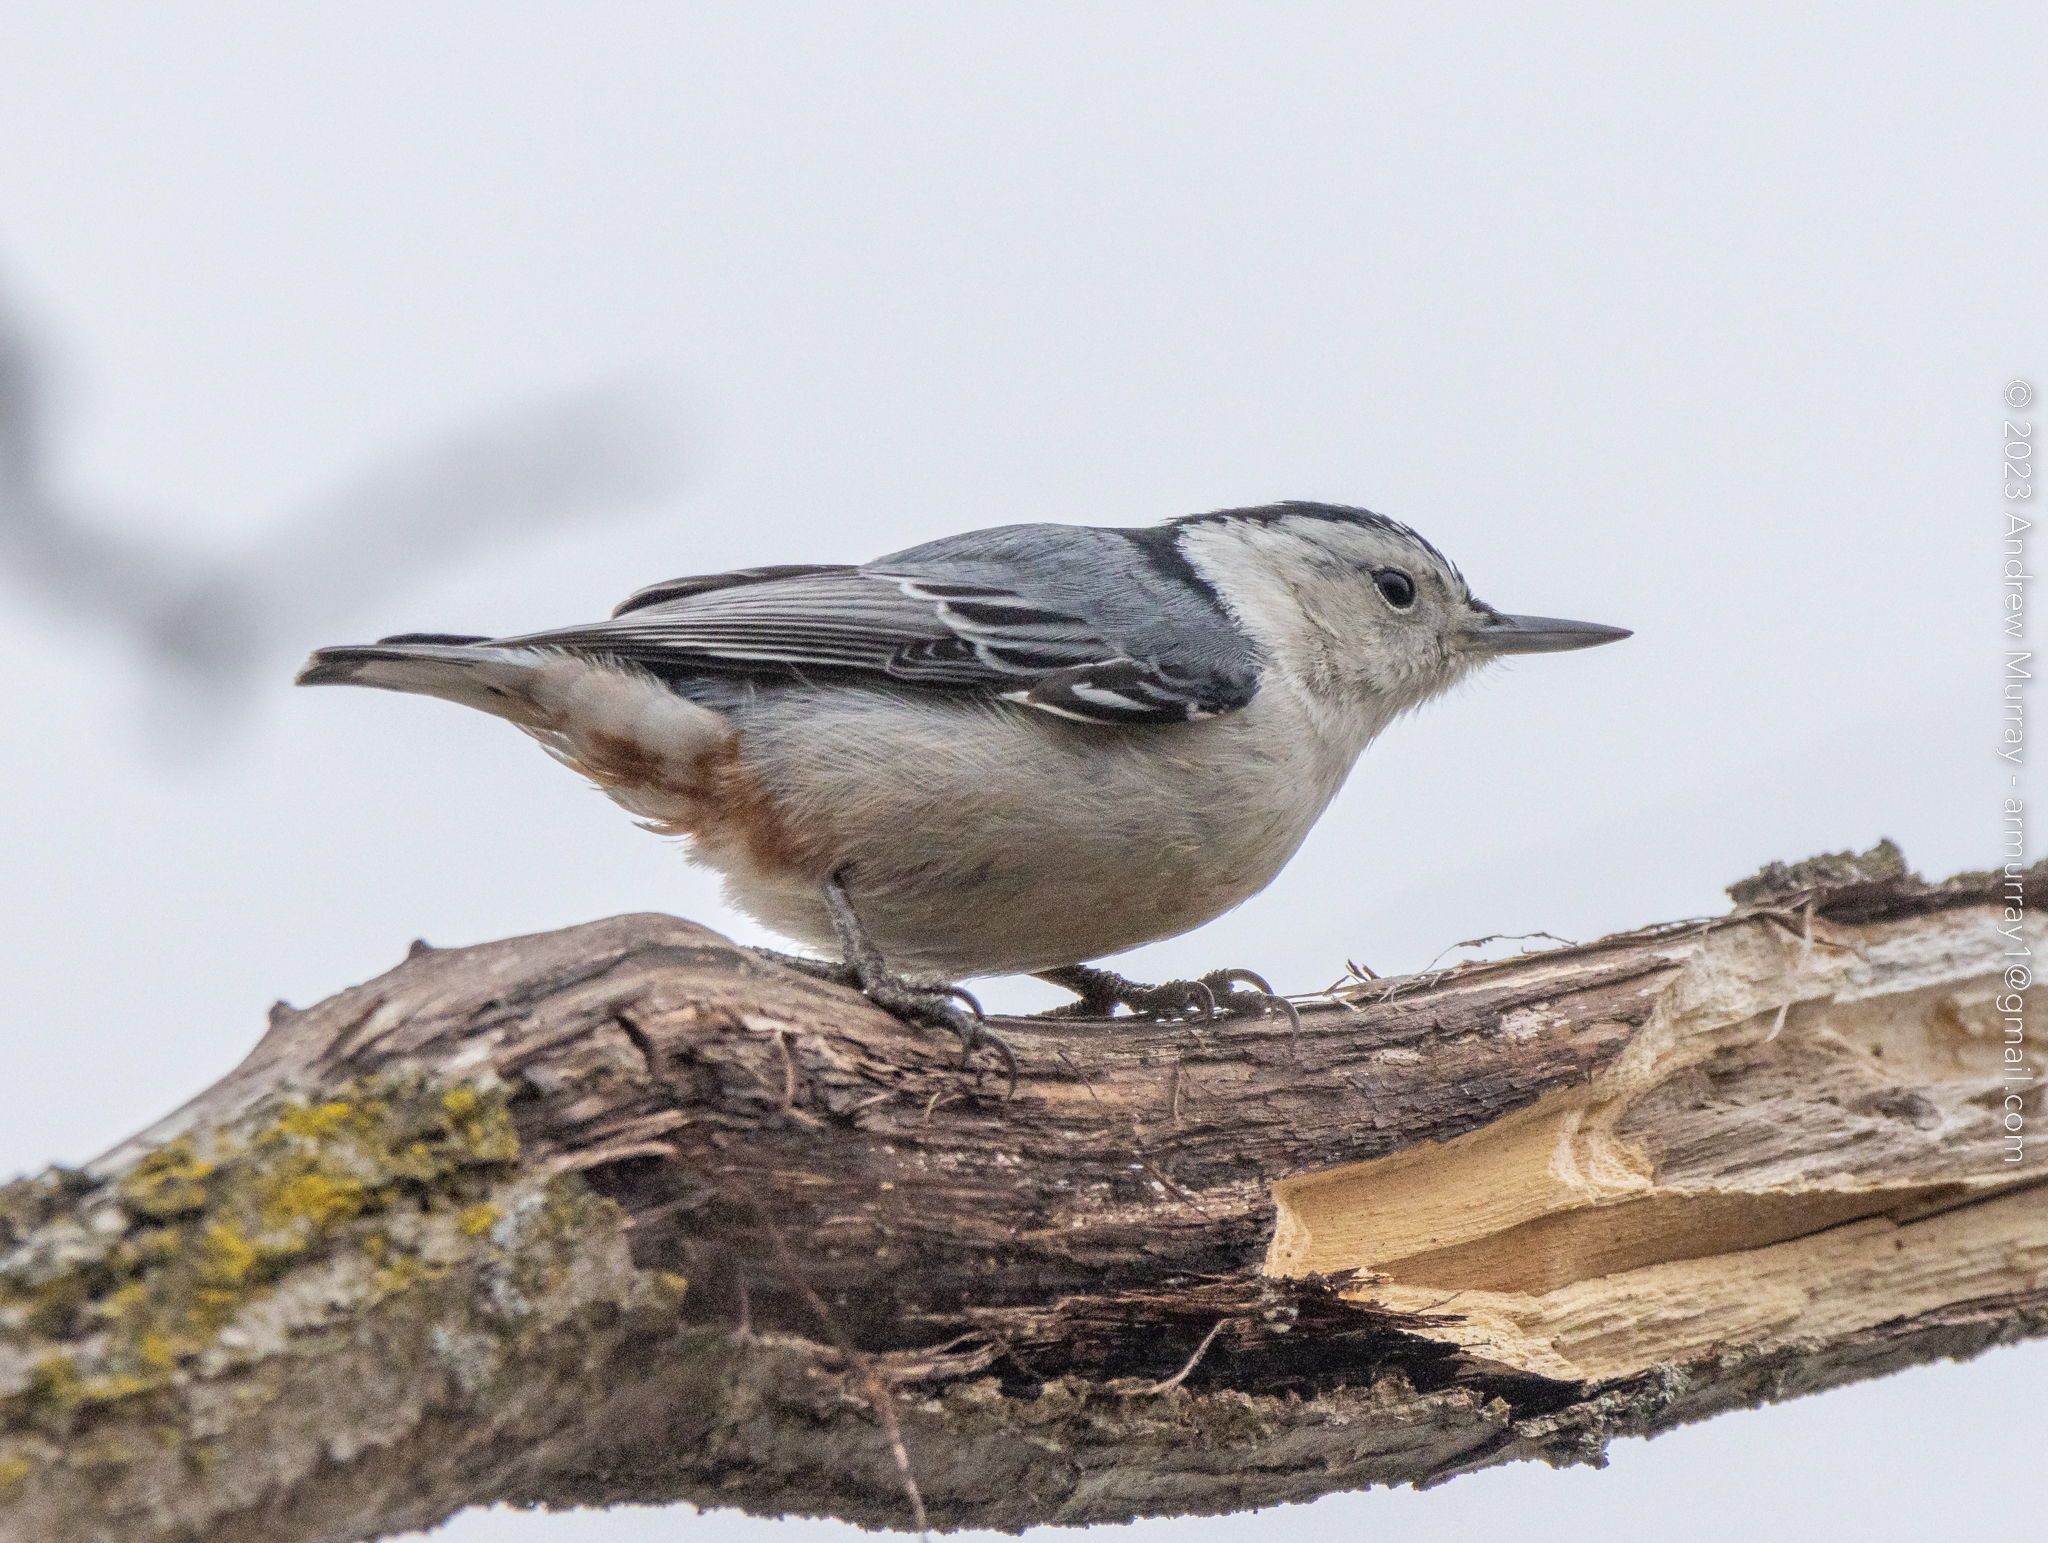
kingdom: Animalia
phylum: Chordata
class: Aves
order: Passeriformes
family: Sittidae
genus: Sitta
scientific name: Sitta carolinensis
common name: White-breasted nuthatch
